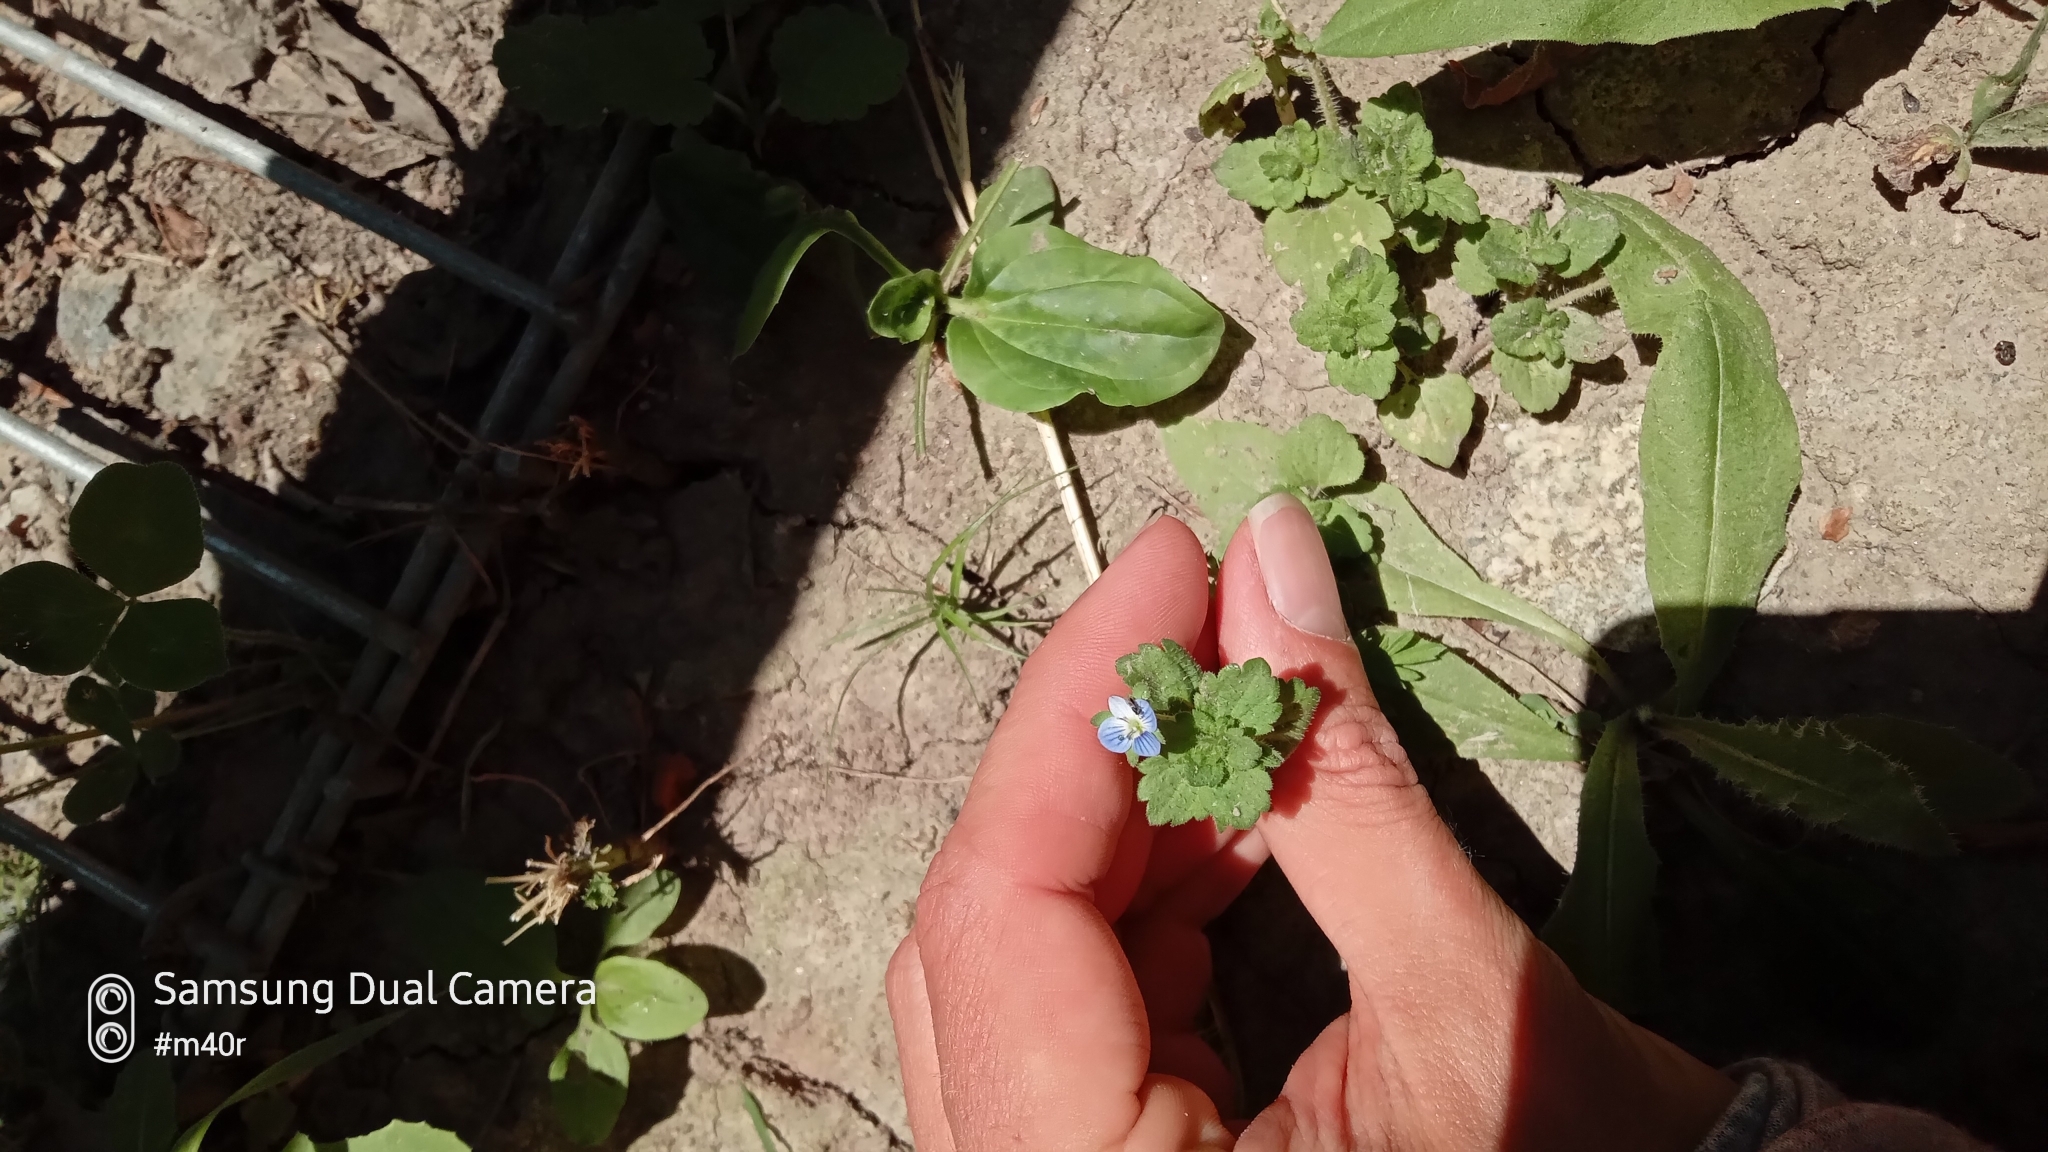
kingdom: Plantae
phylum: Tracheophyta
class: Magnoliopsida
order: Lamiales
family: Plantaginaceae
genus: Veronica
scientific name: Veronica persica
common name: Common field-speedwell
